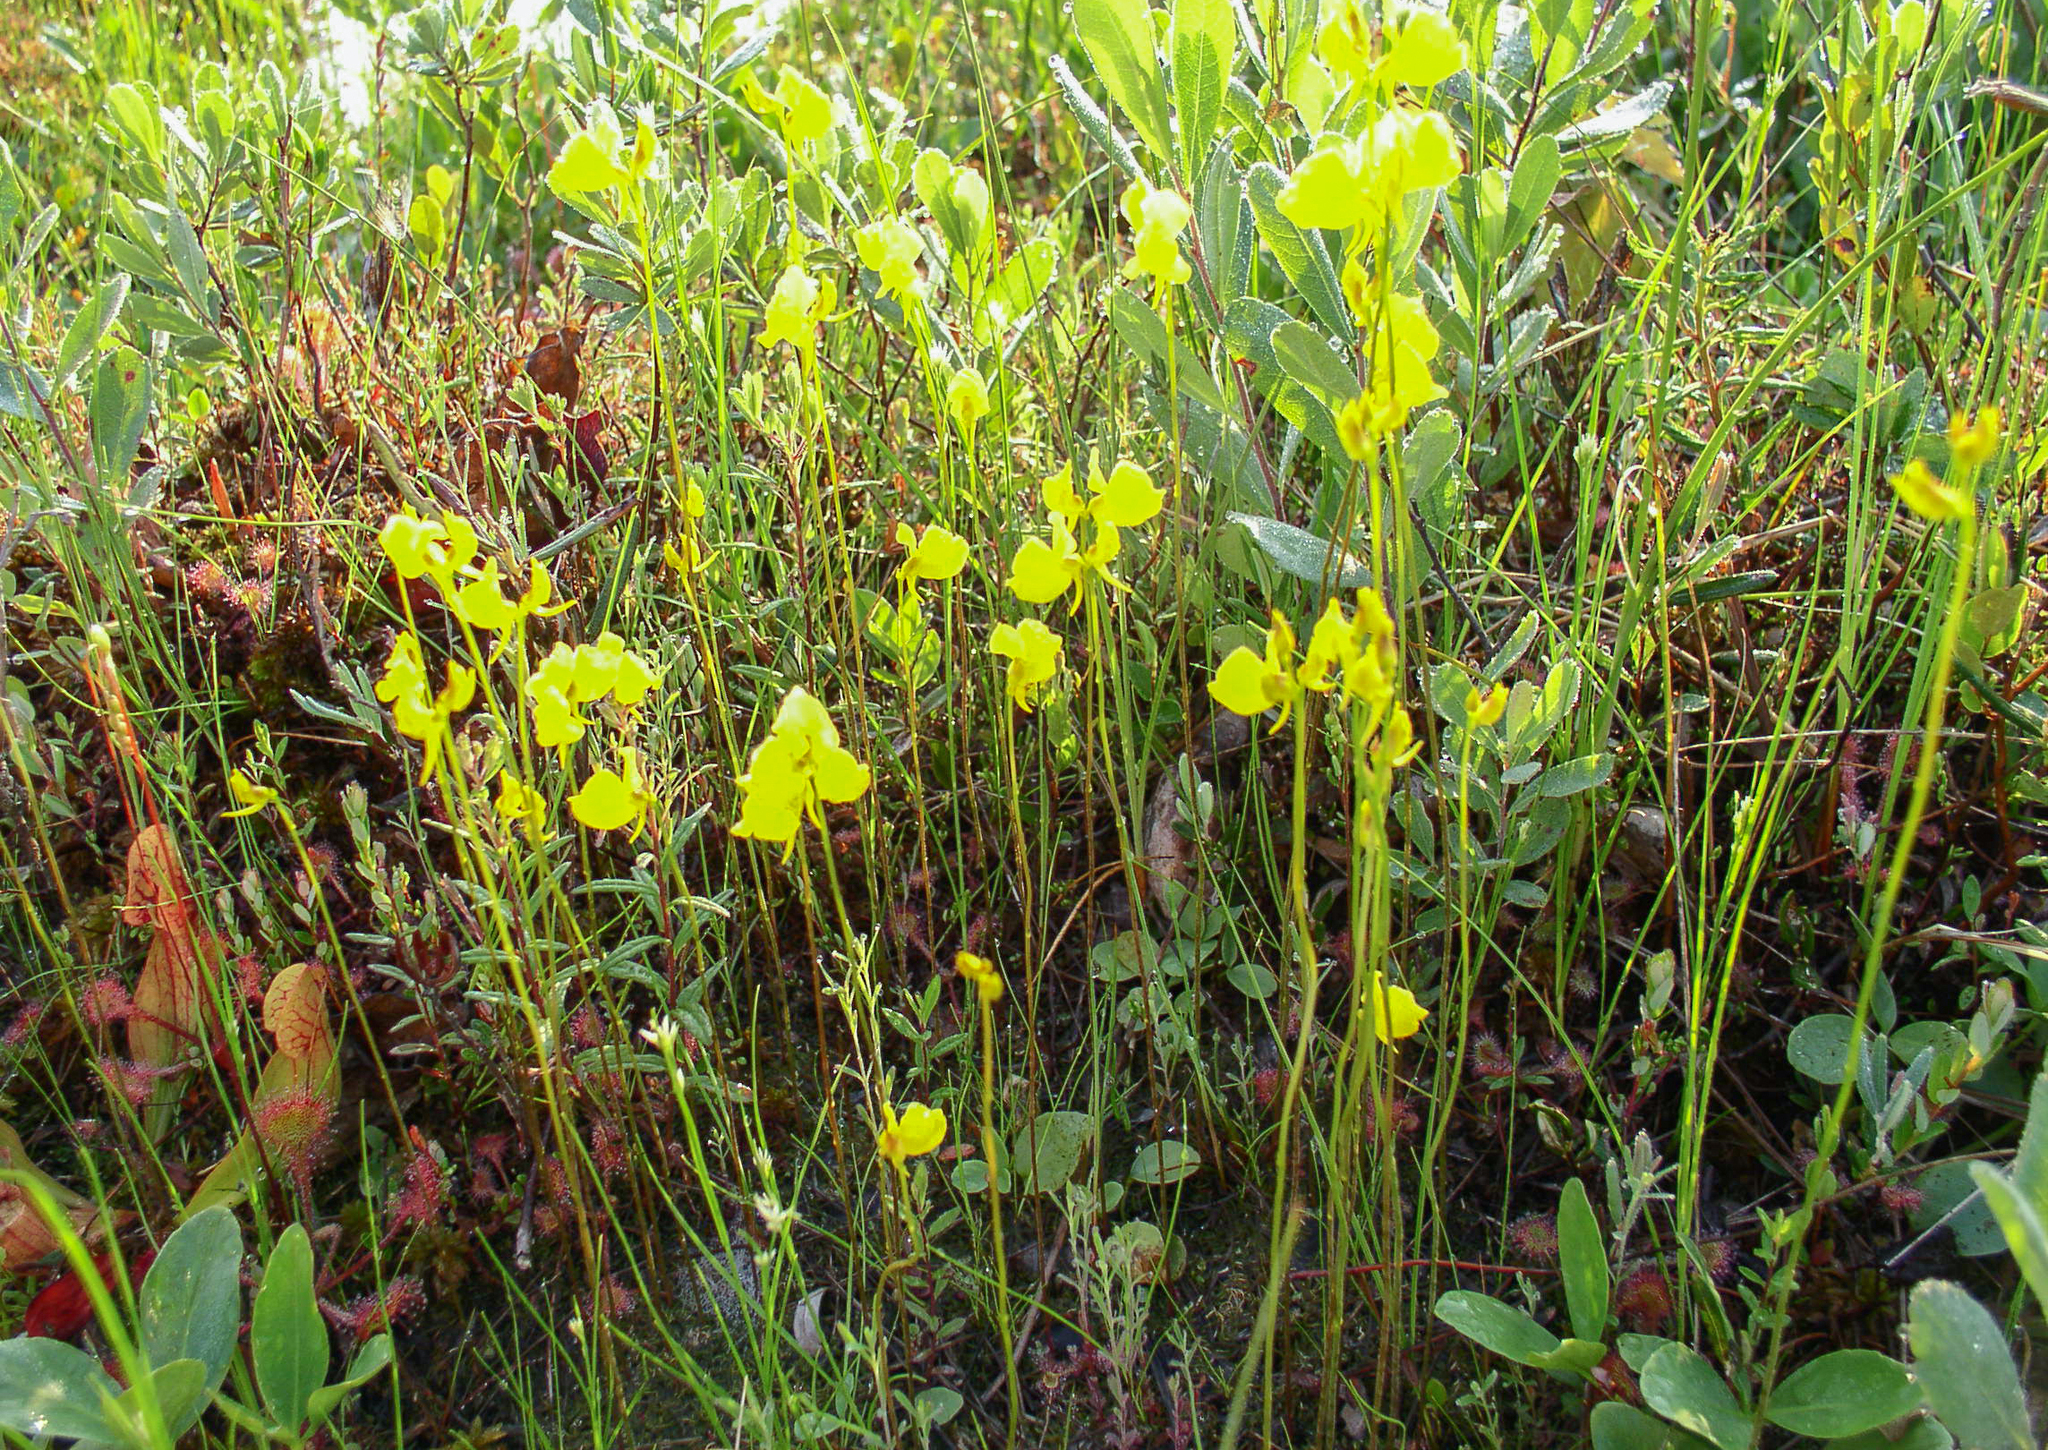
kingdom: Plantae
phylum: Tracheophyta
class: Magnoliopsida
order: Lamiales
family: Lentibulariaceae
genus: Utricularia
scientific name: Utricularia cornuta
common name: Horned bladderwort
